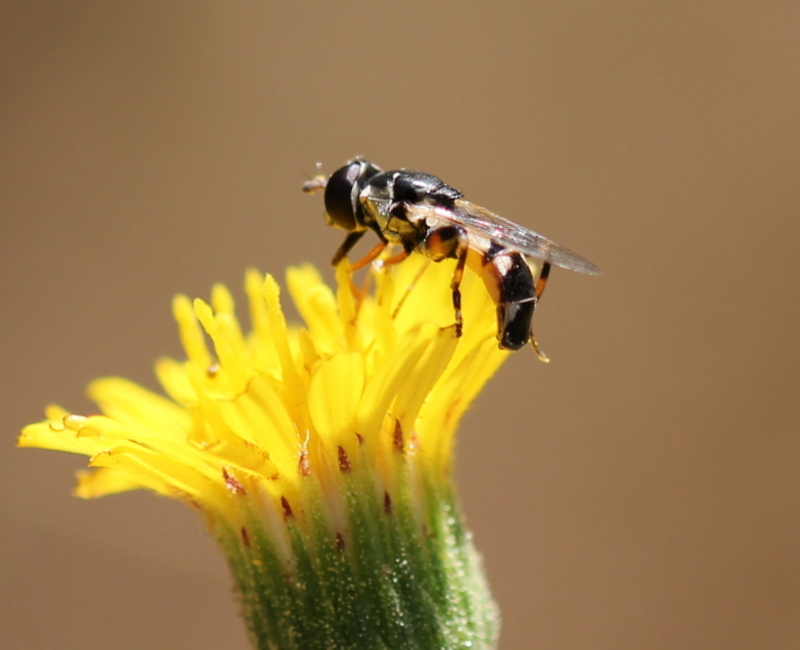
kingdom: Animalia
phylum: Arthropoda
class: Insecta
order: Diptera
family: Syrphidae
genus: Syritta
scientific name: Syritta pipiens
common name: Hover fly
